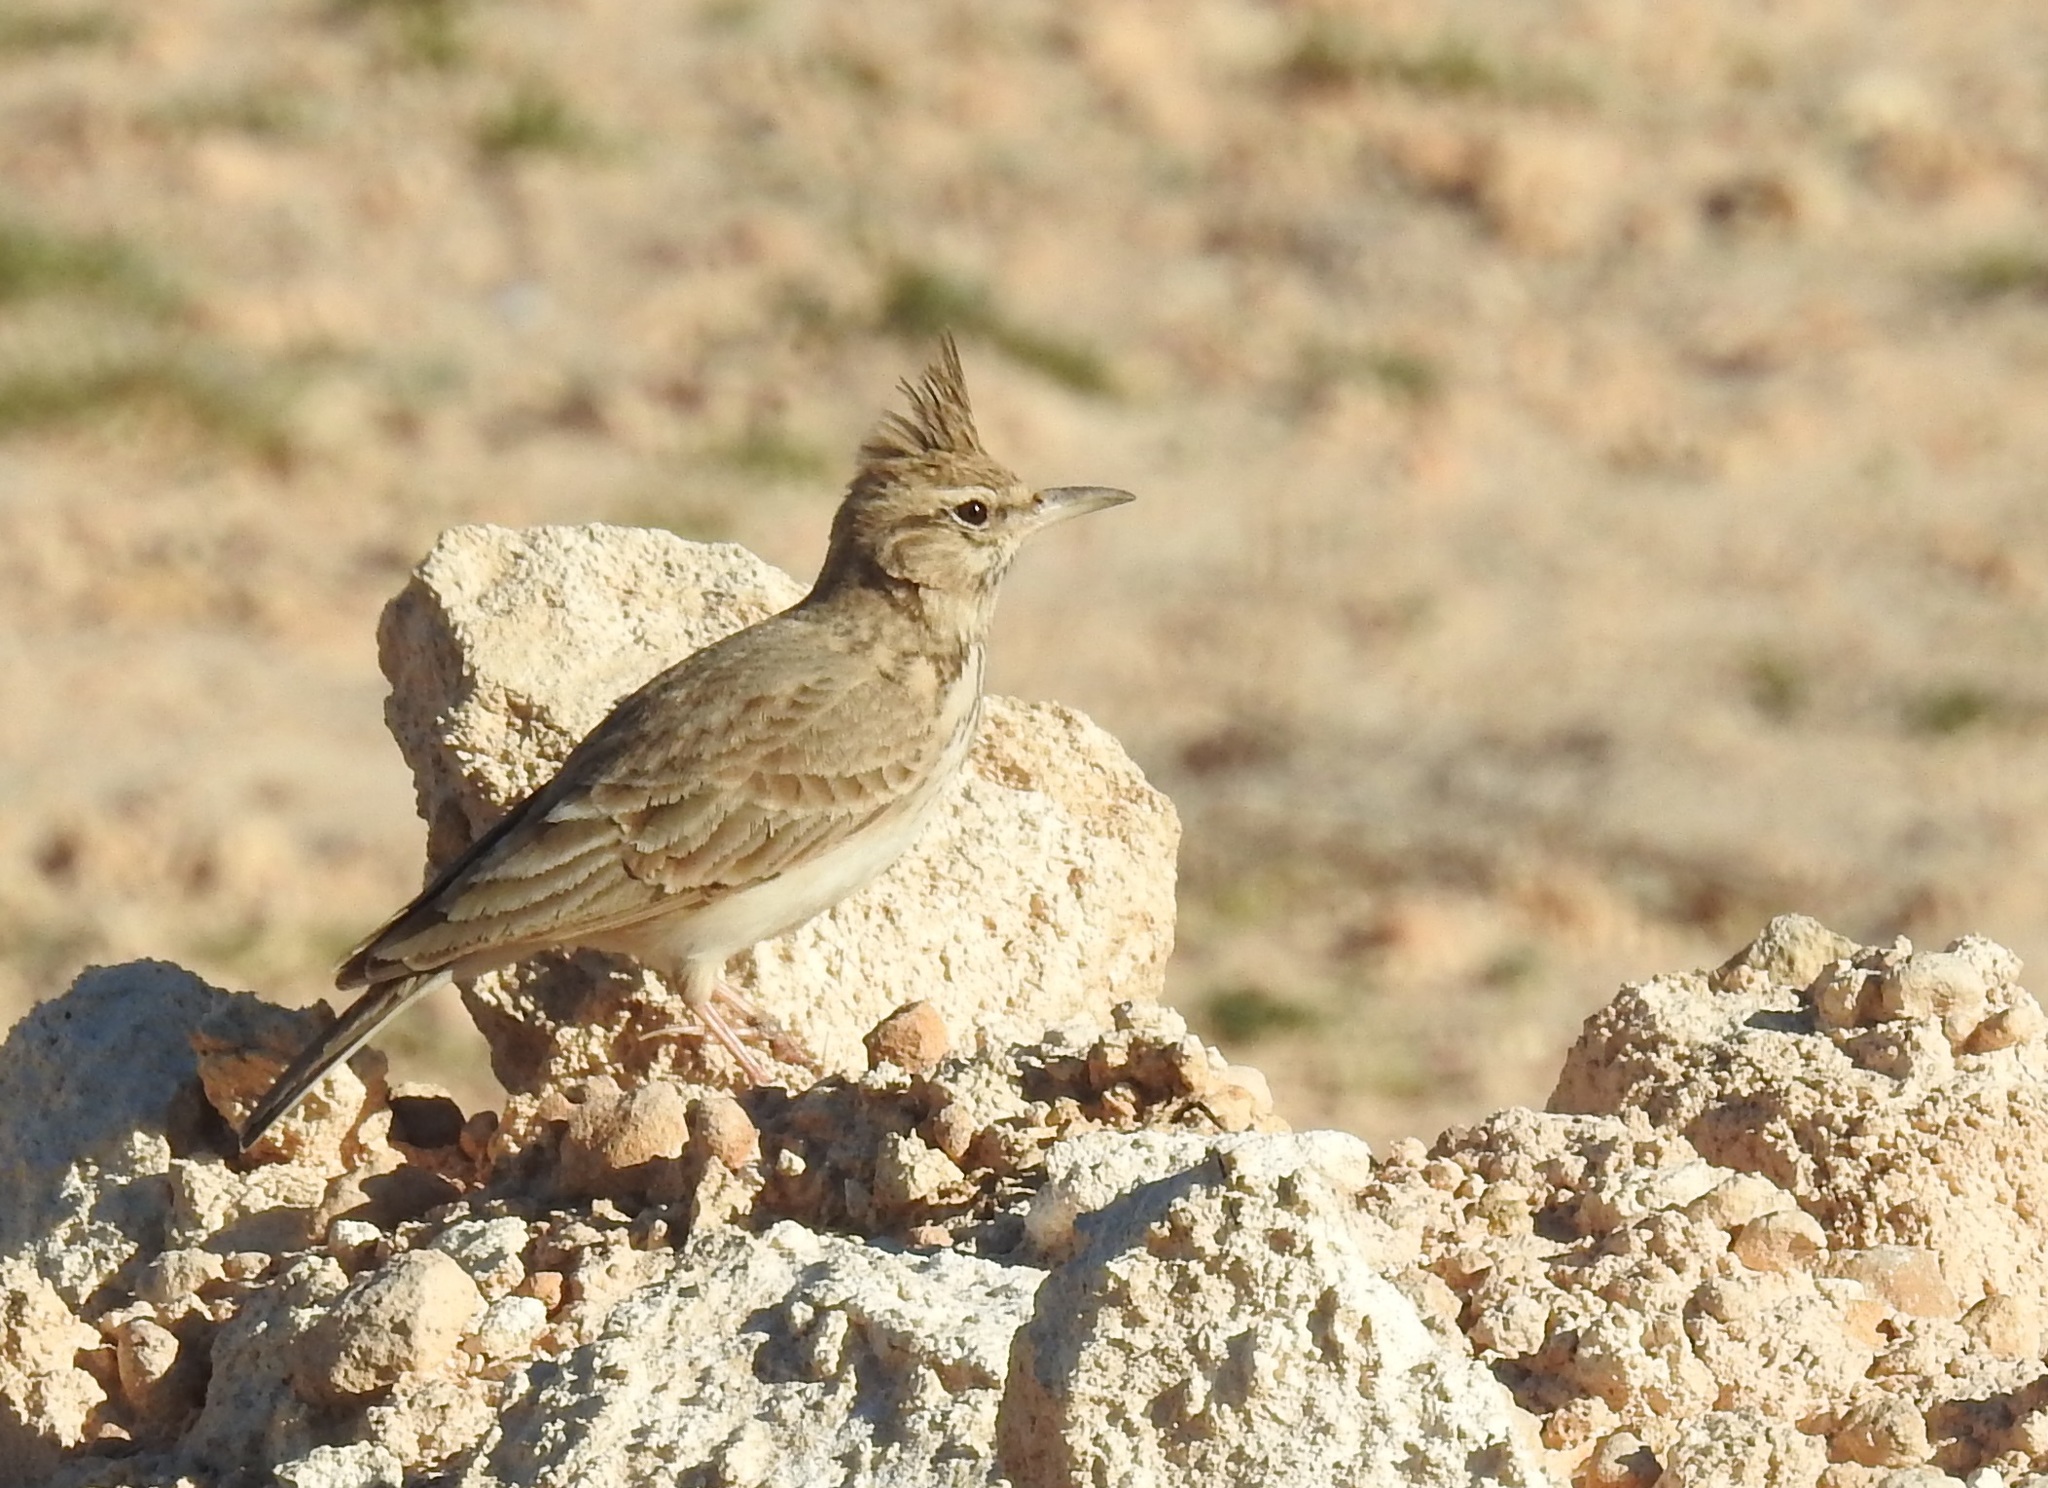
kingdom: Animalia
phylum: Chordata
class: Aves
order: Passeriformes
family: Alaudidae
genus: Galerida
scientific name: Galerida cristata
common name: Crested lark
